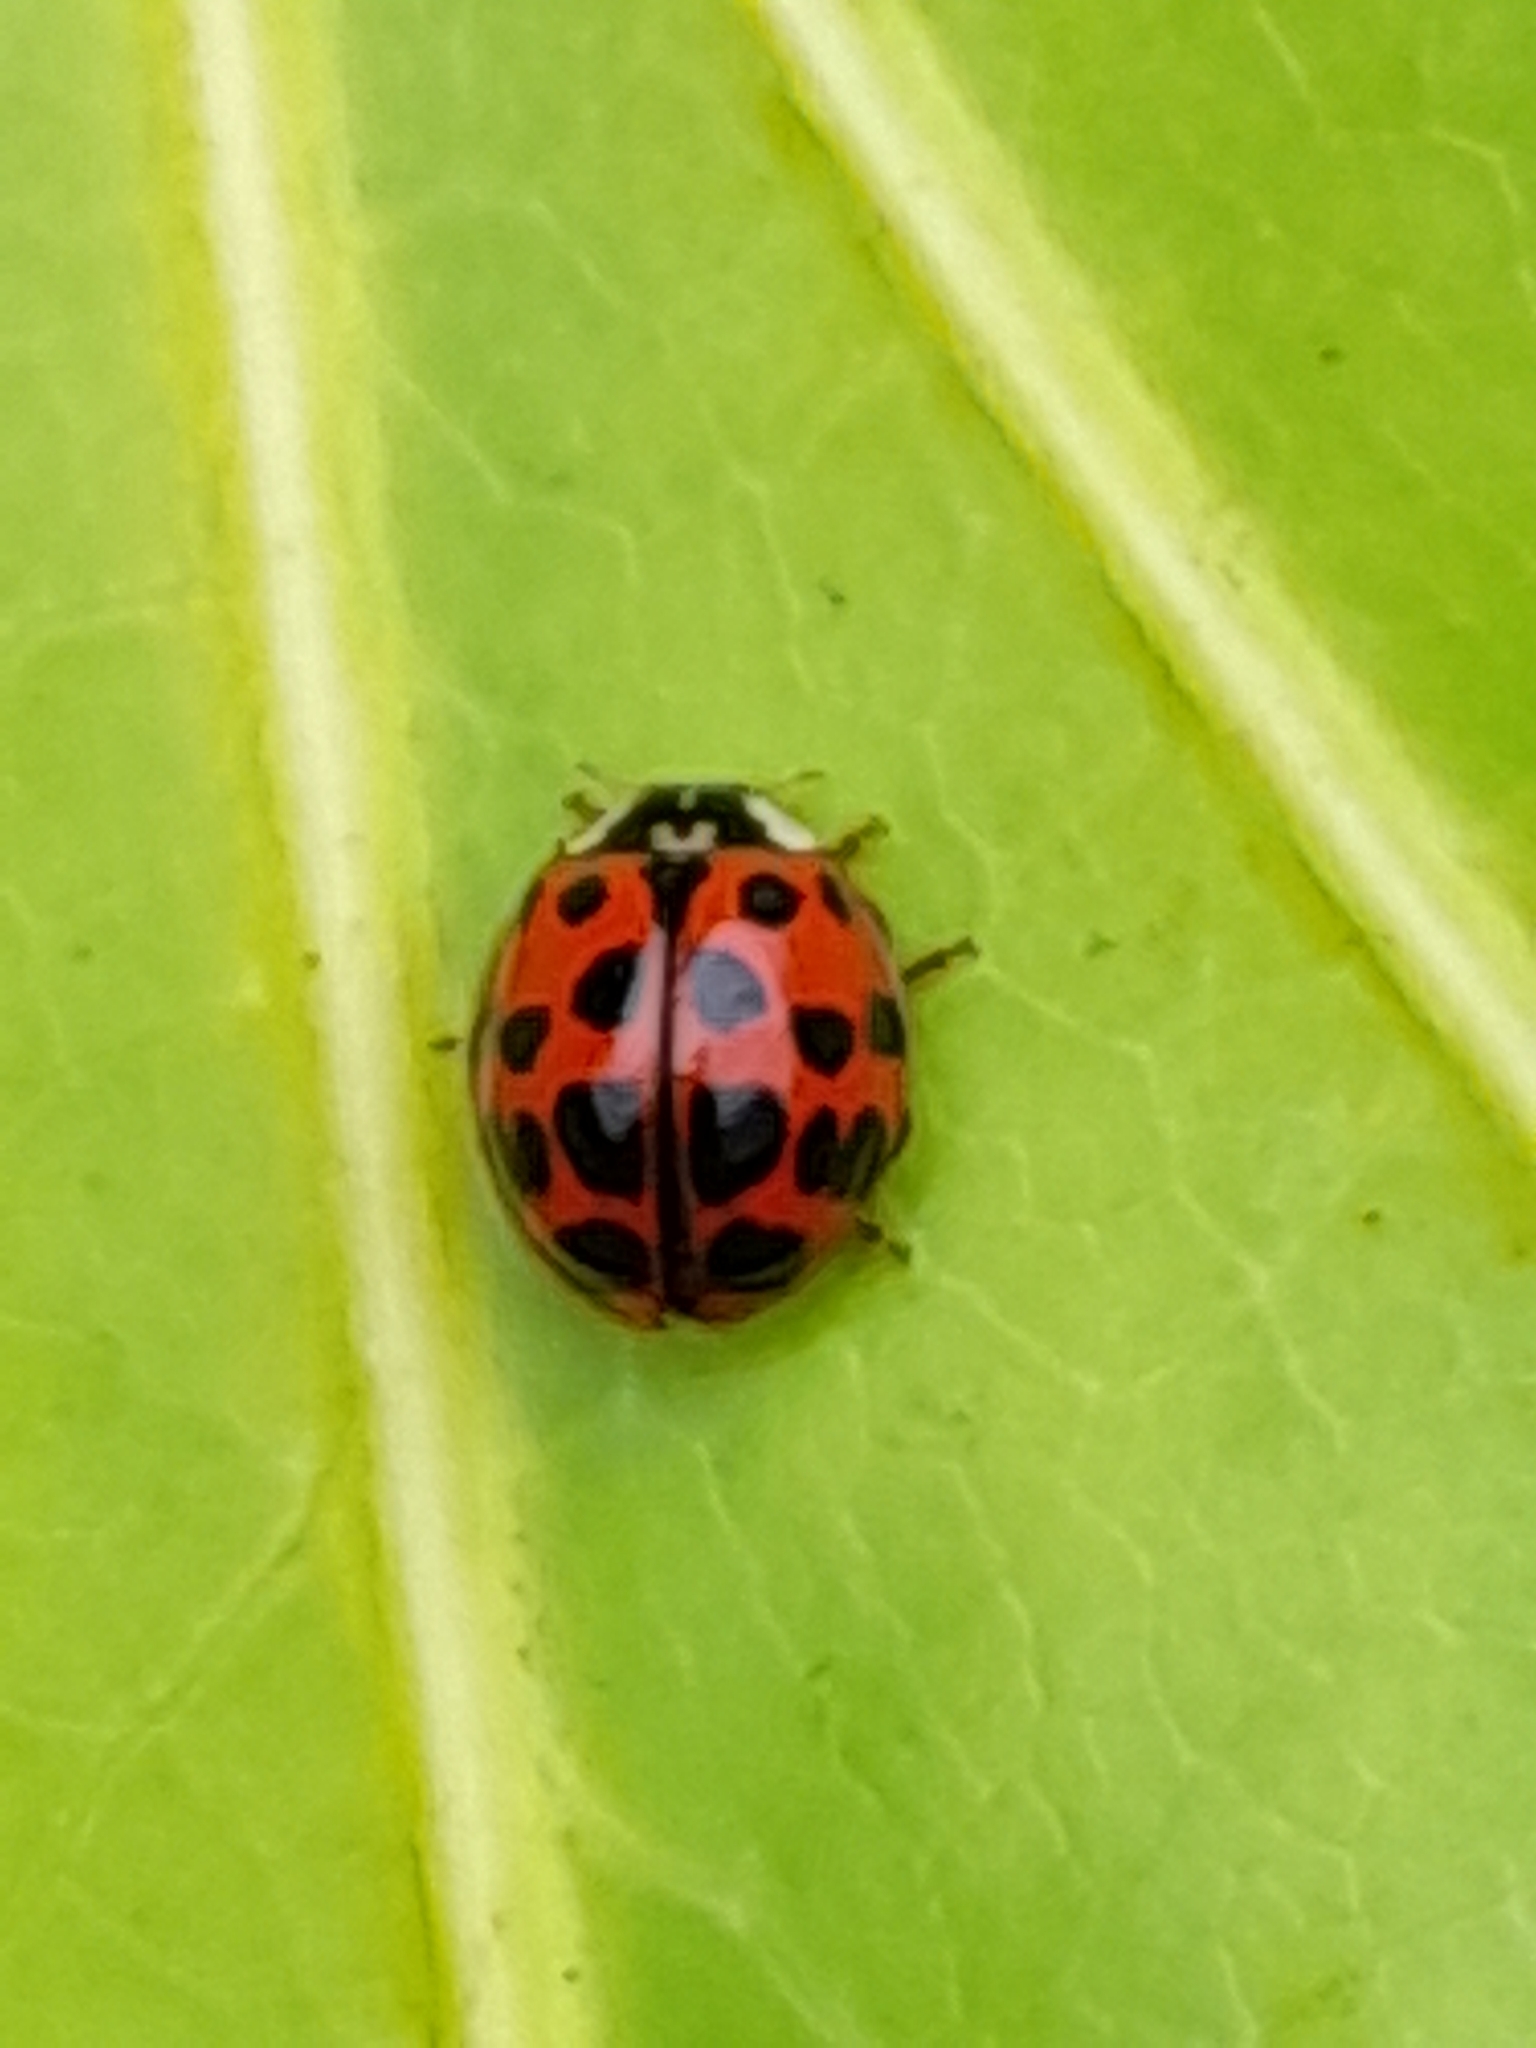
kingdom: Animalia
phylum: Arthropoda
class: Insecta
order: Coleoptera
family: Coccinellidae
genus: Harmonia
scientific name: Harmonia axyridis
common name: Harlequin ladybird
